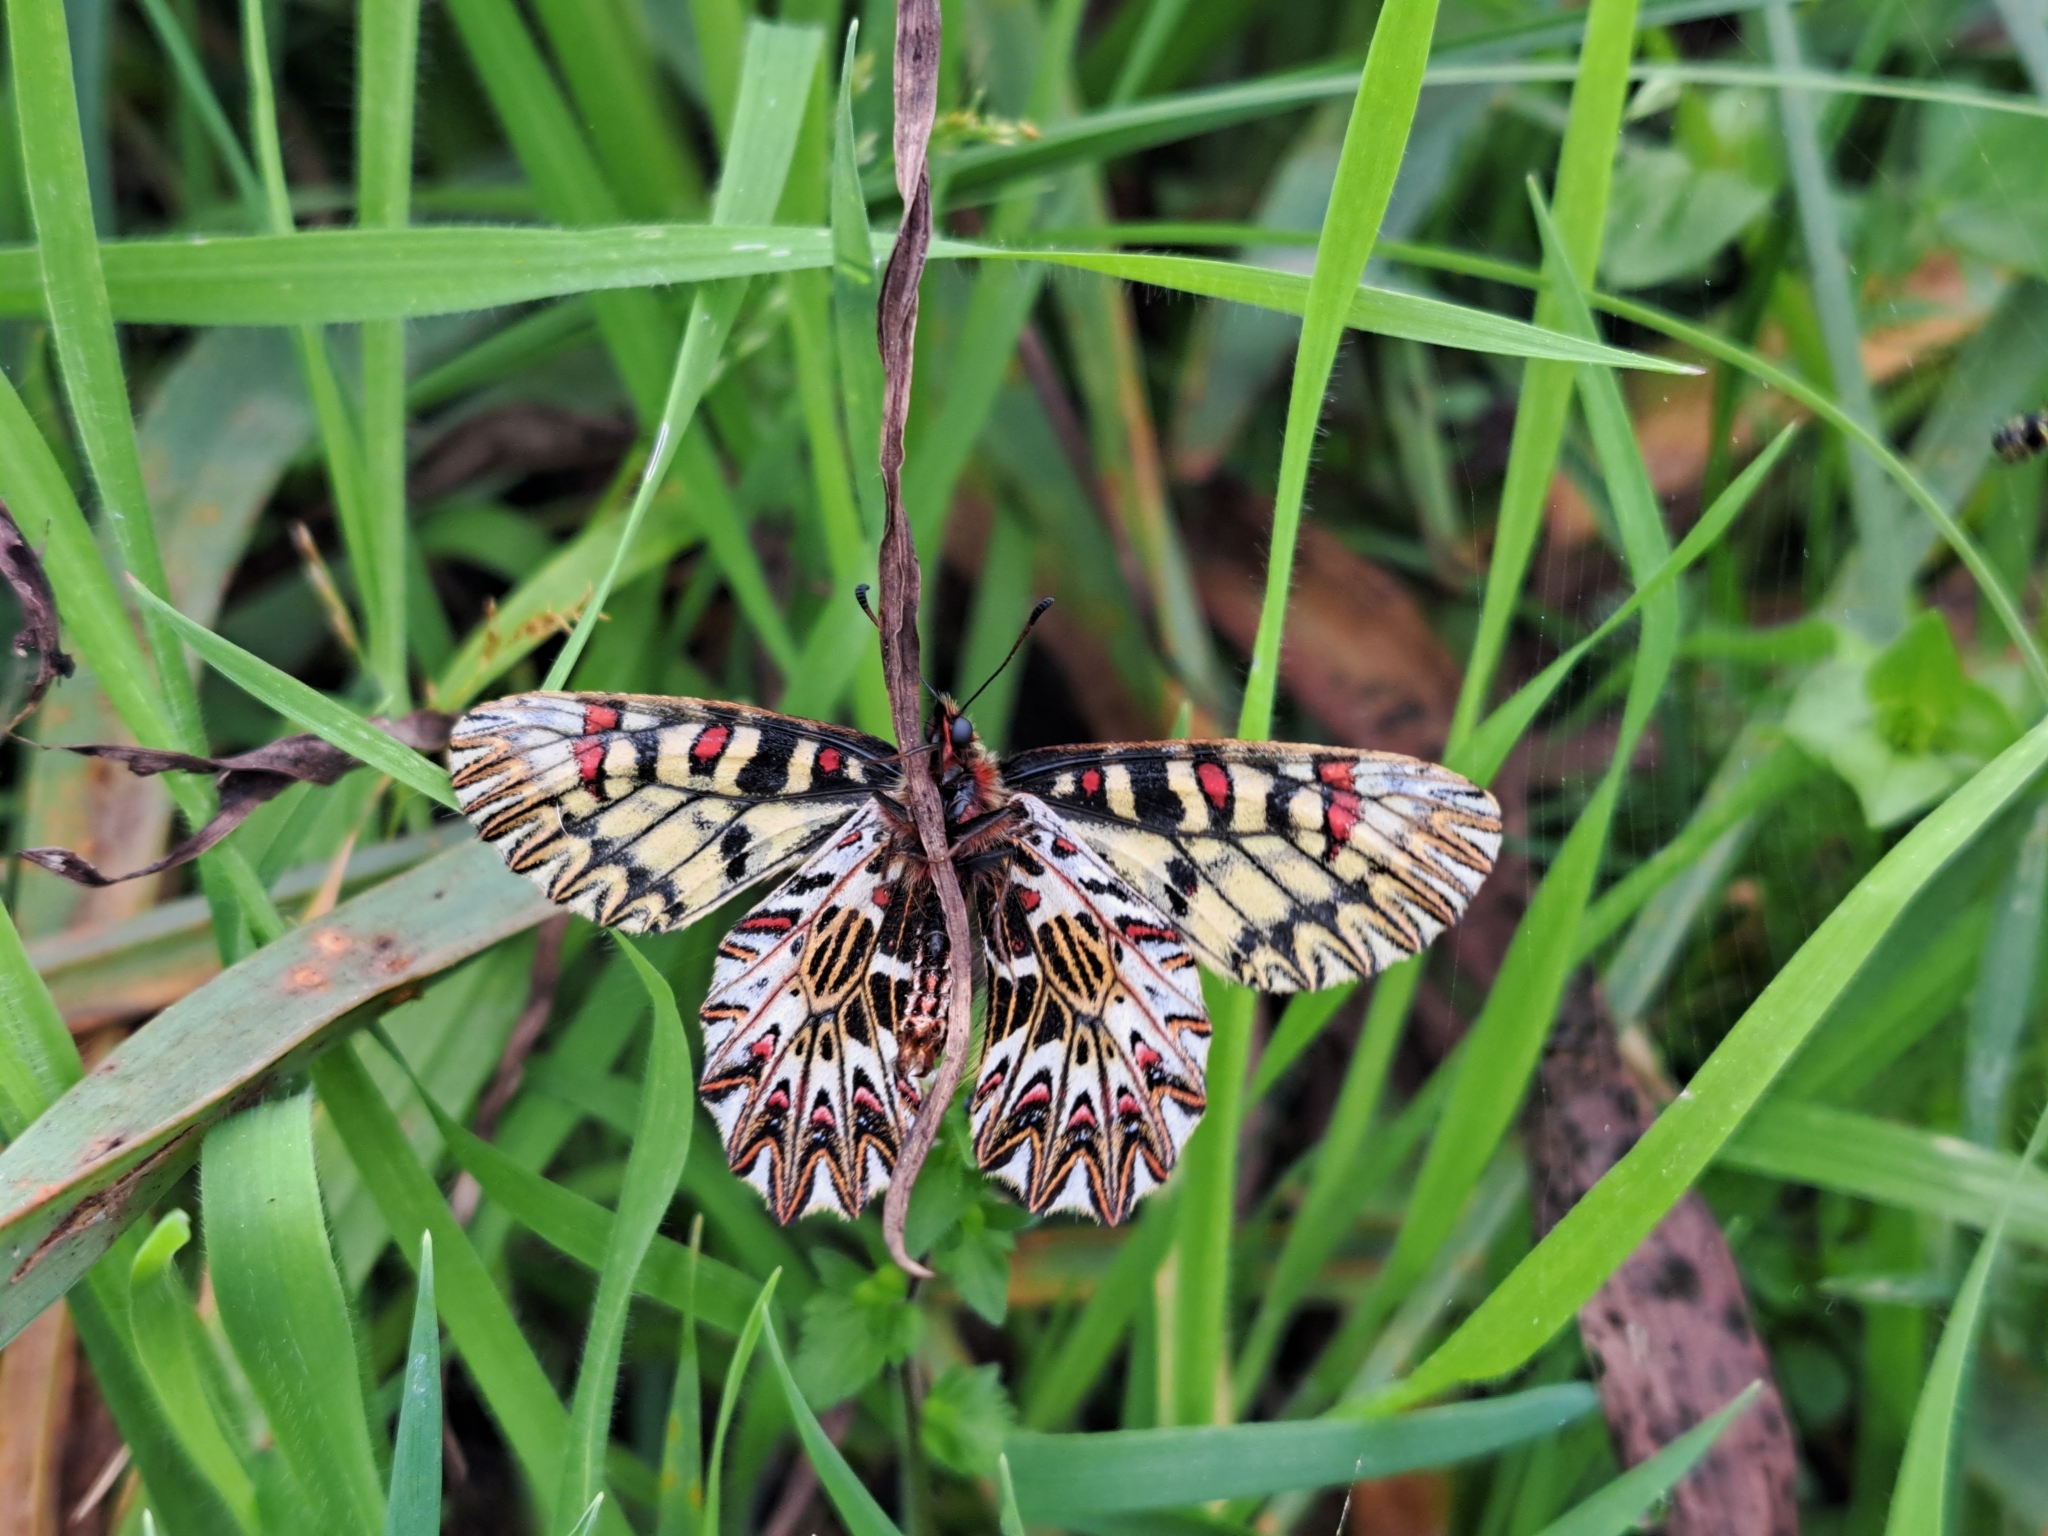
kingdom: Animalia
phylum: Arthropoda
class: Insecta
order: Lepidoptera
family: Papilionidae
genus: Zerynthia
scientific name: Zerynthia cassandra
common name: Italian festoon
